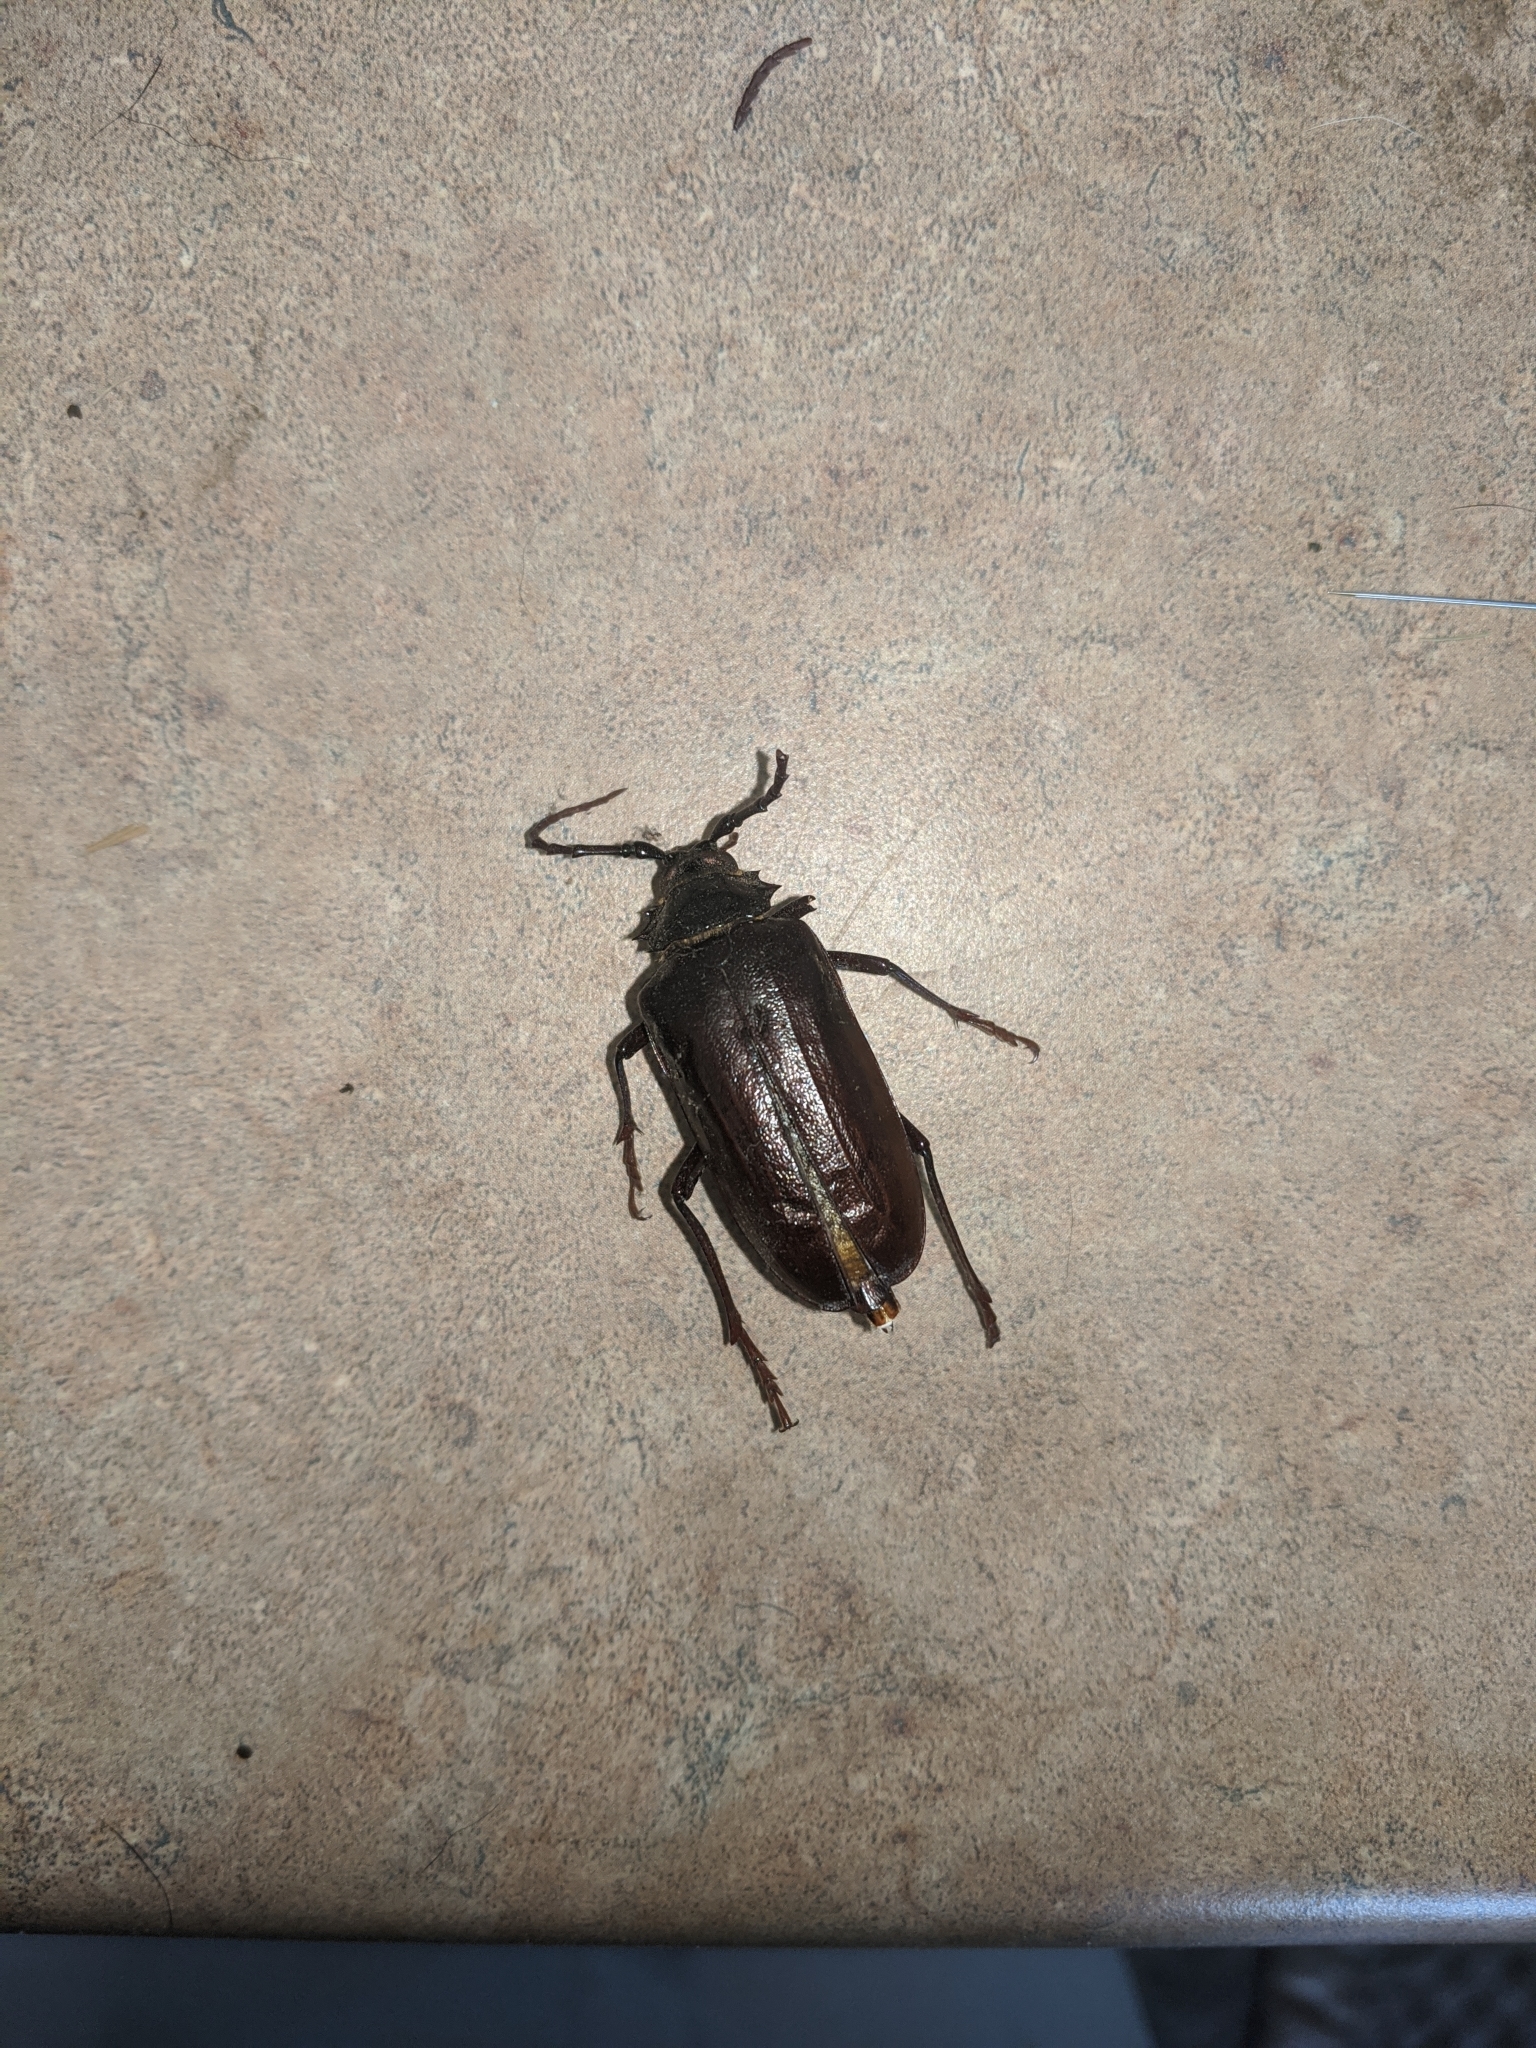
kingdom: Animalia
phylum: Arthropoda
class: Insecta
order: Coleoptera
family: Cerambycidae
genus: Prionus
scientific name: Prionus californicus
